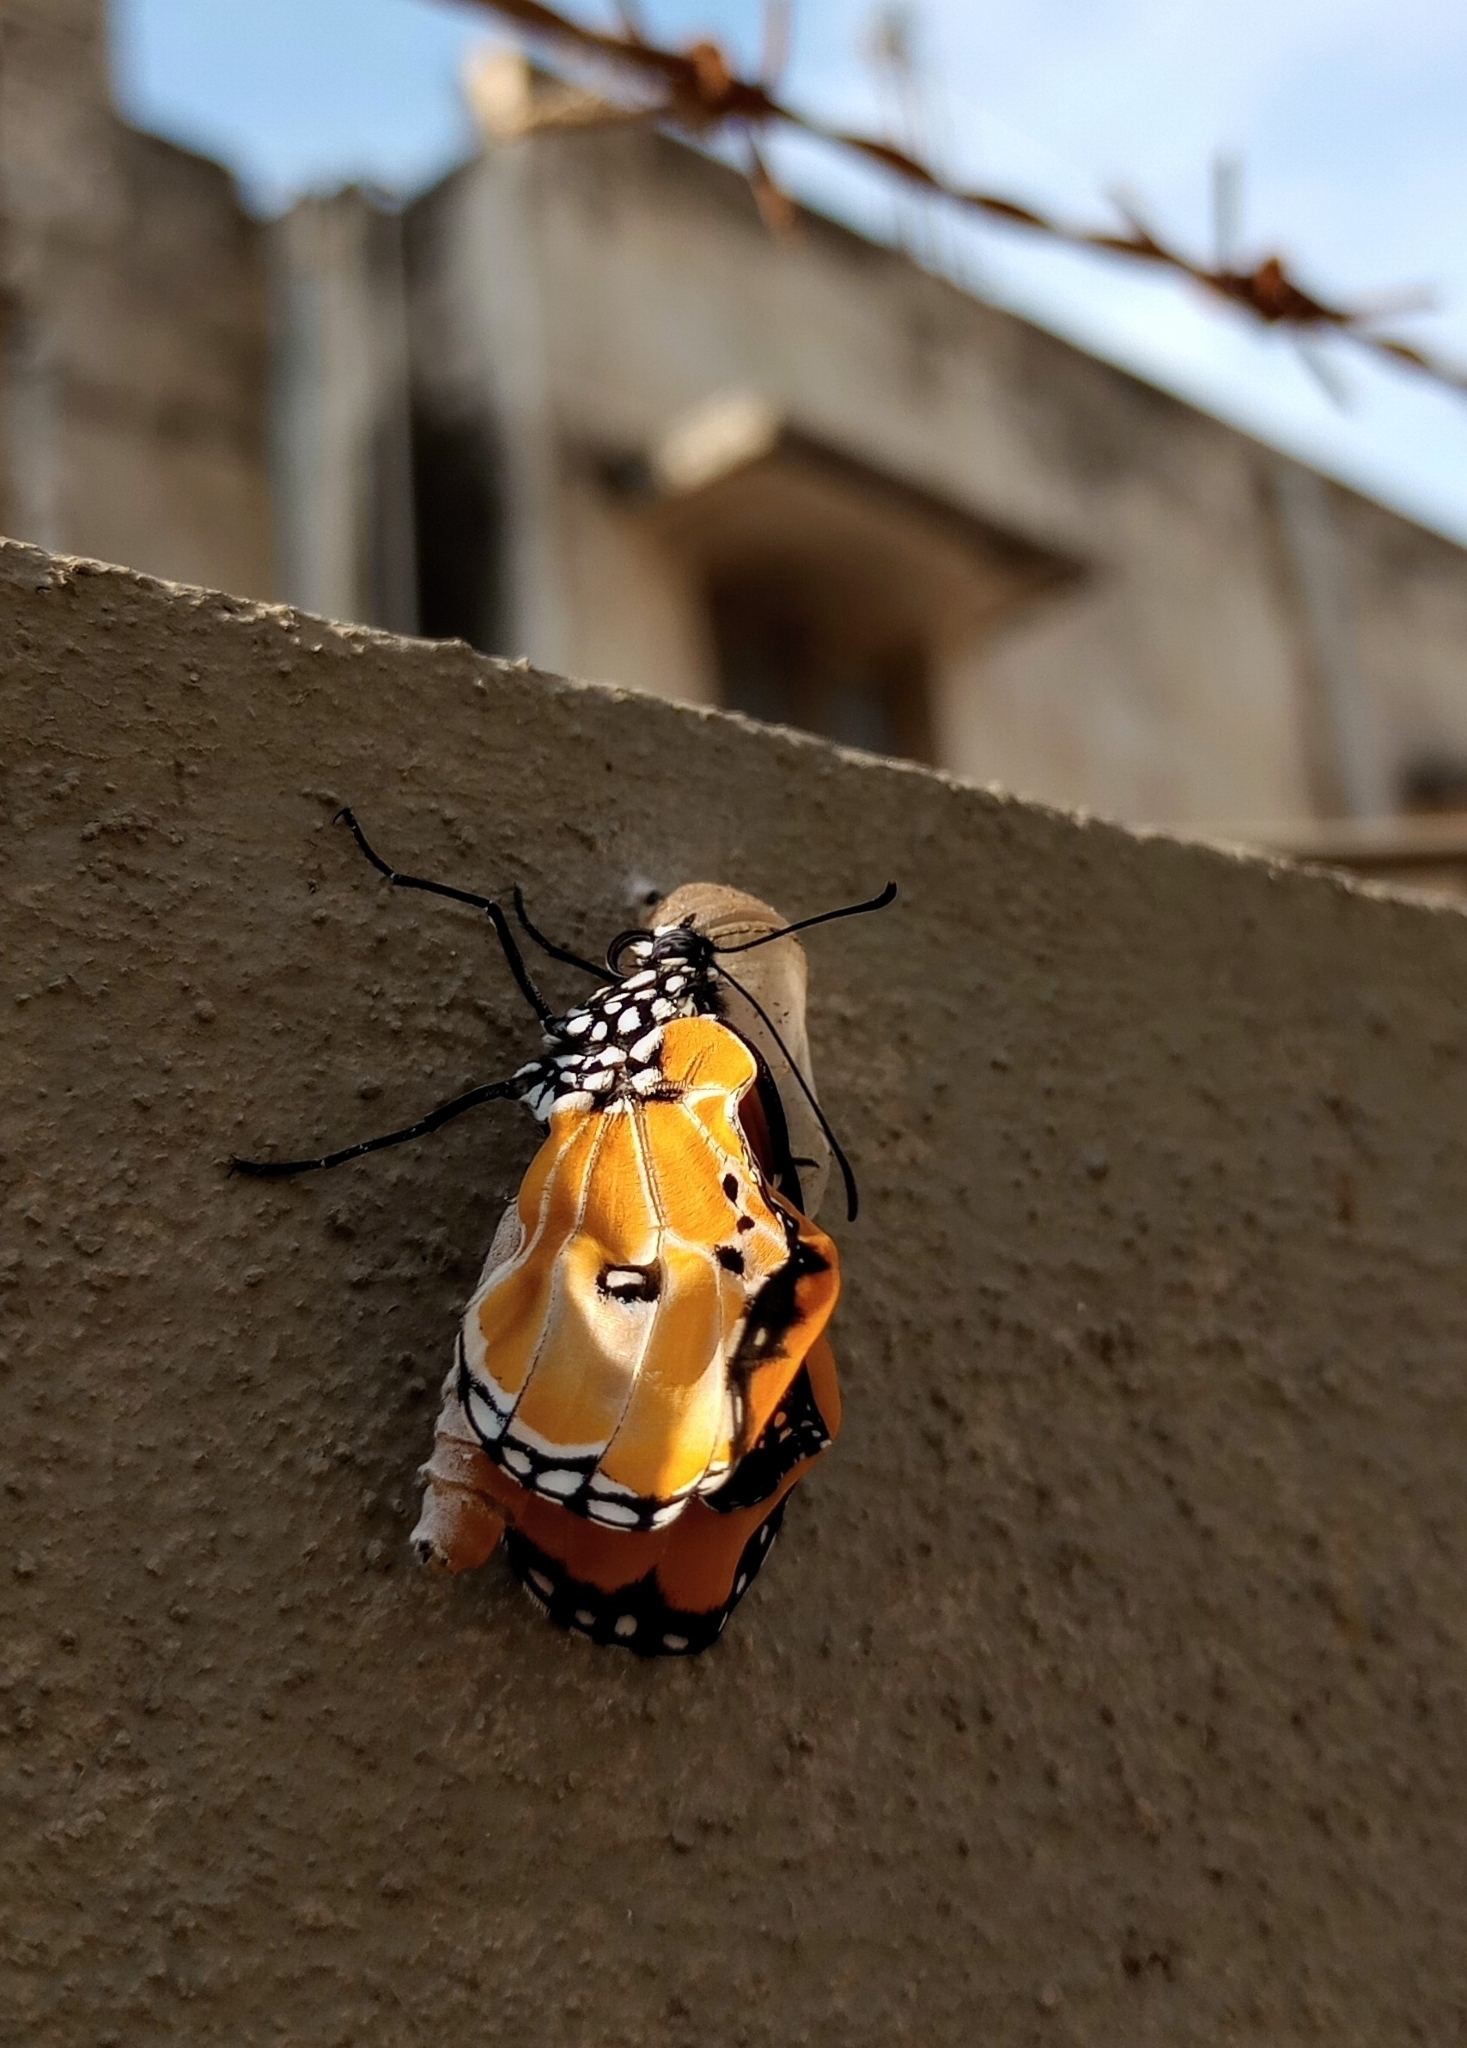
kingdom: Animalia
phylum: Arthropoda
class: Insecta
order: Lepidoptera
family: Nymphalidae
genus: Danaus
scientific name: Danaus chrysippus
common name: Plain tiger
